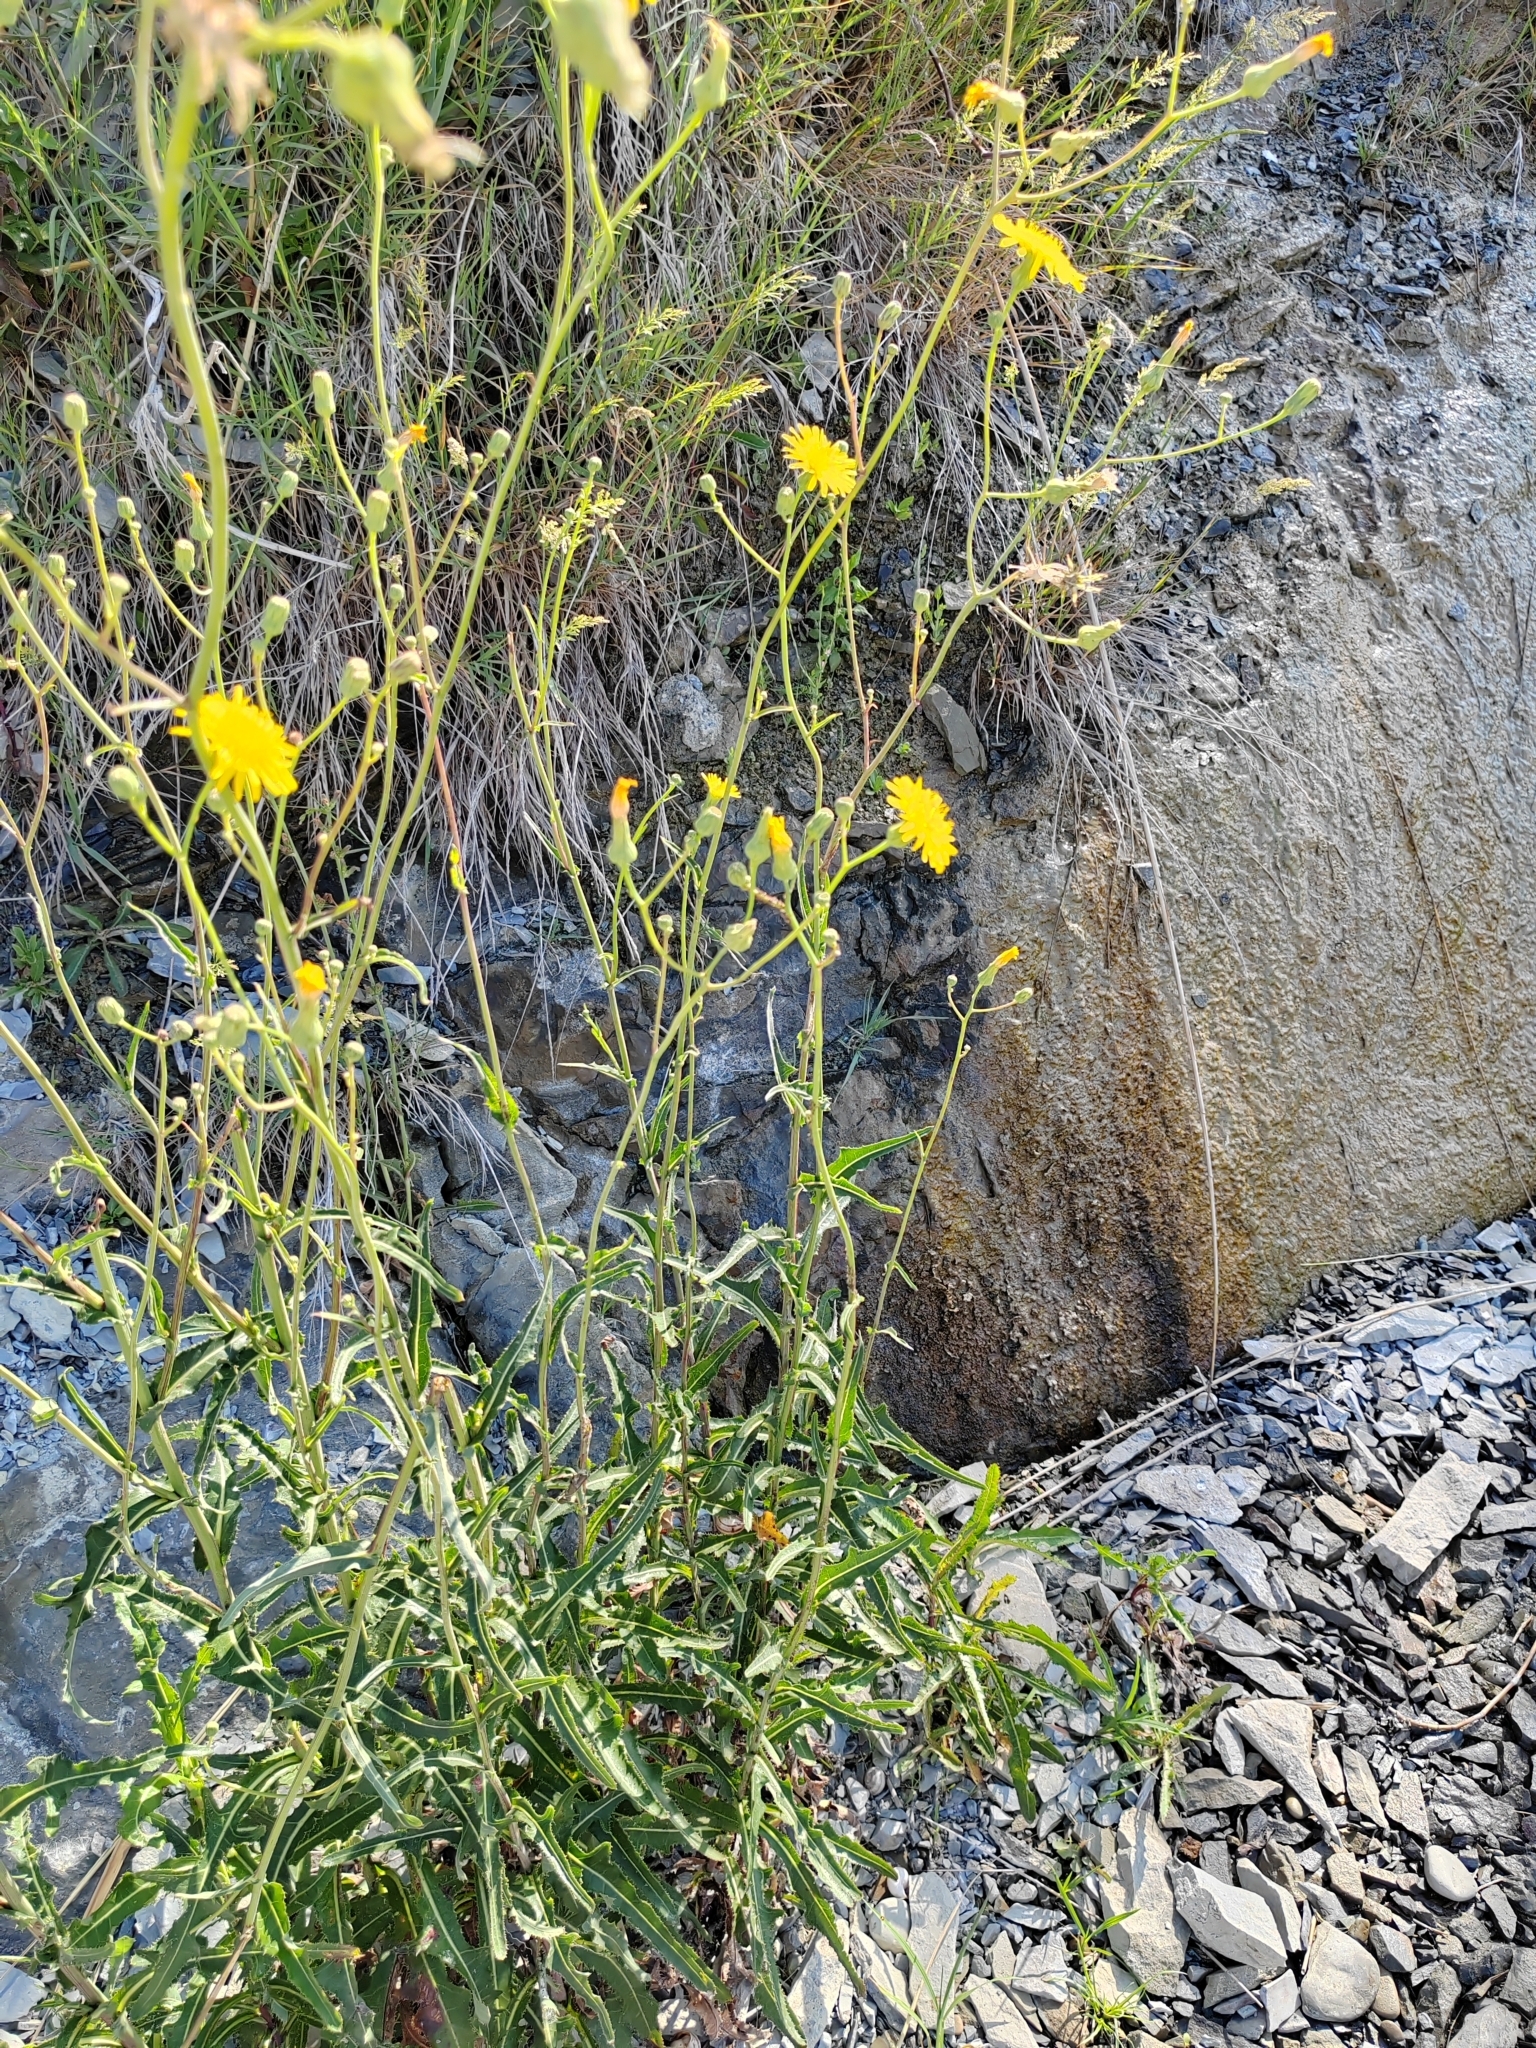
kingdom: Plantae
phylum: Tracheophyta
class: Magnoliopsida
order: Asterales
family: Asteraceae
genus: Sonchus
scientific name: Sonchus arvensis
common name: Perennial sow-thistle
